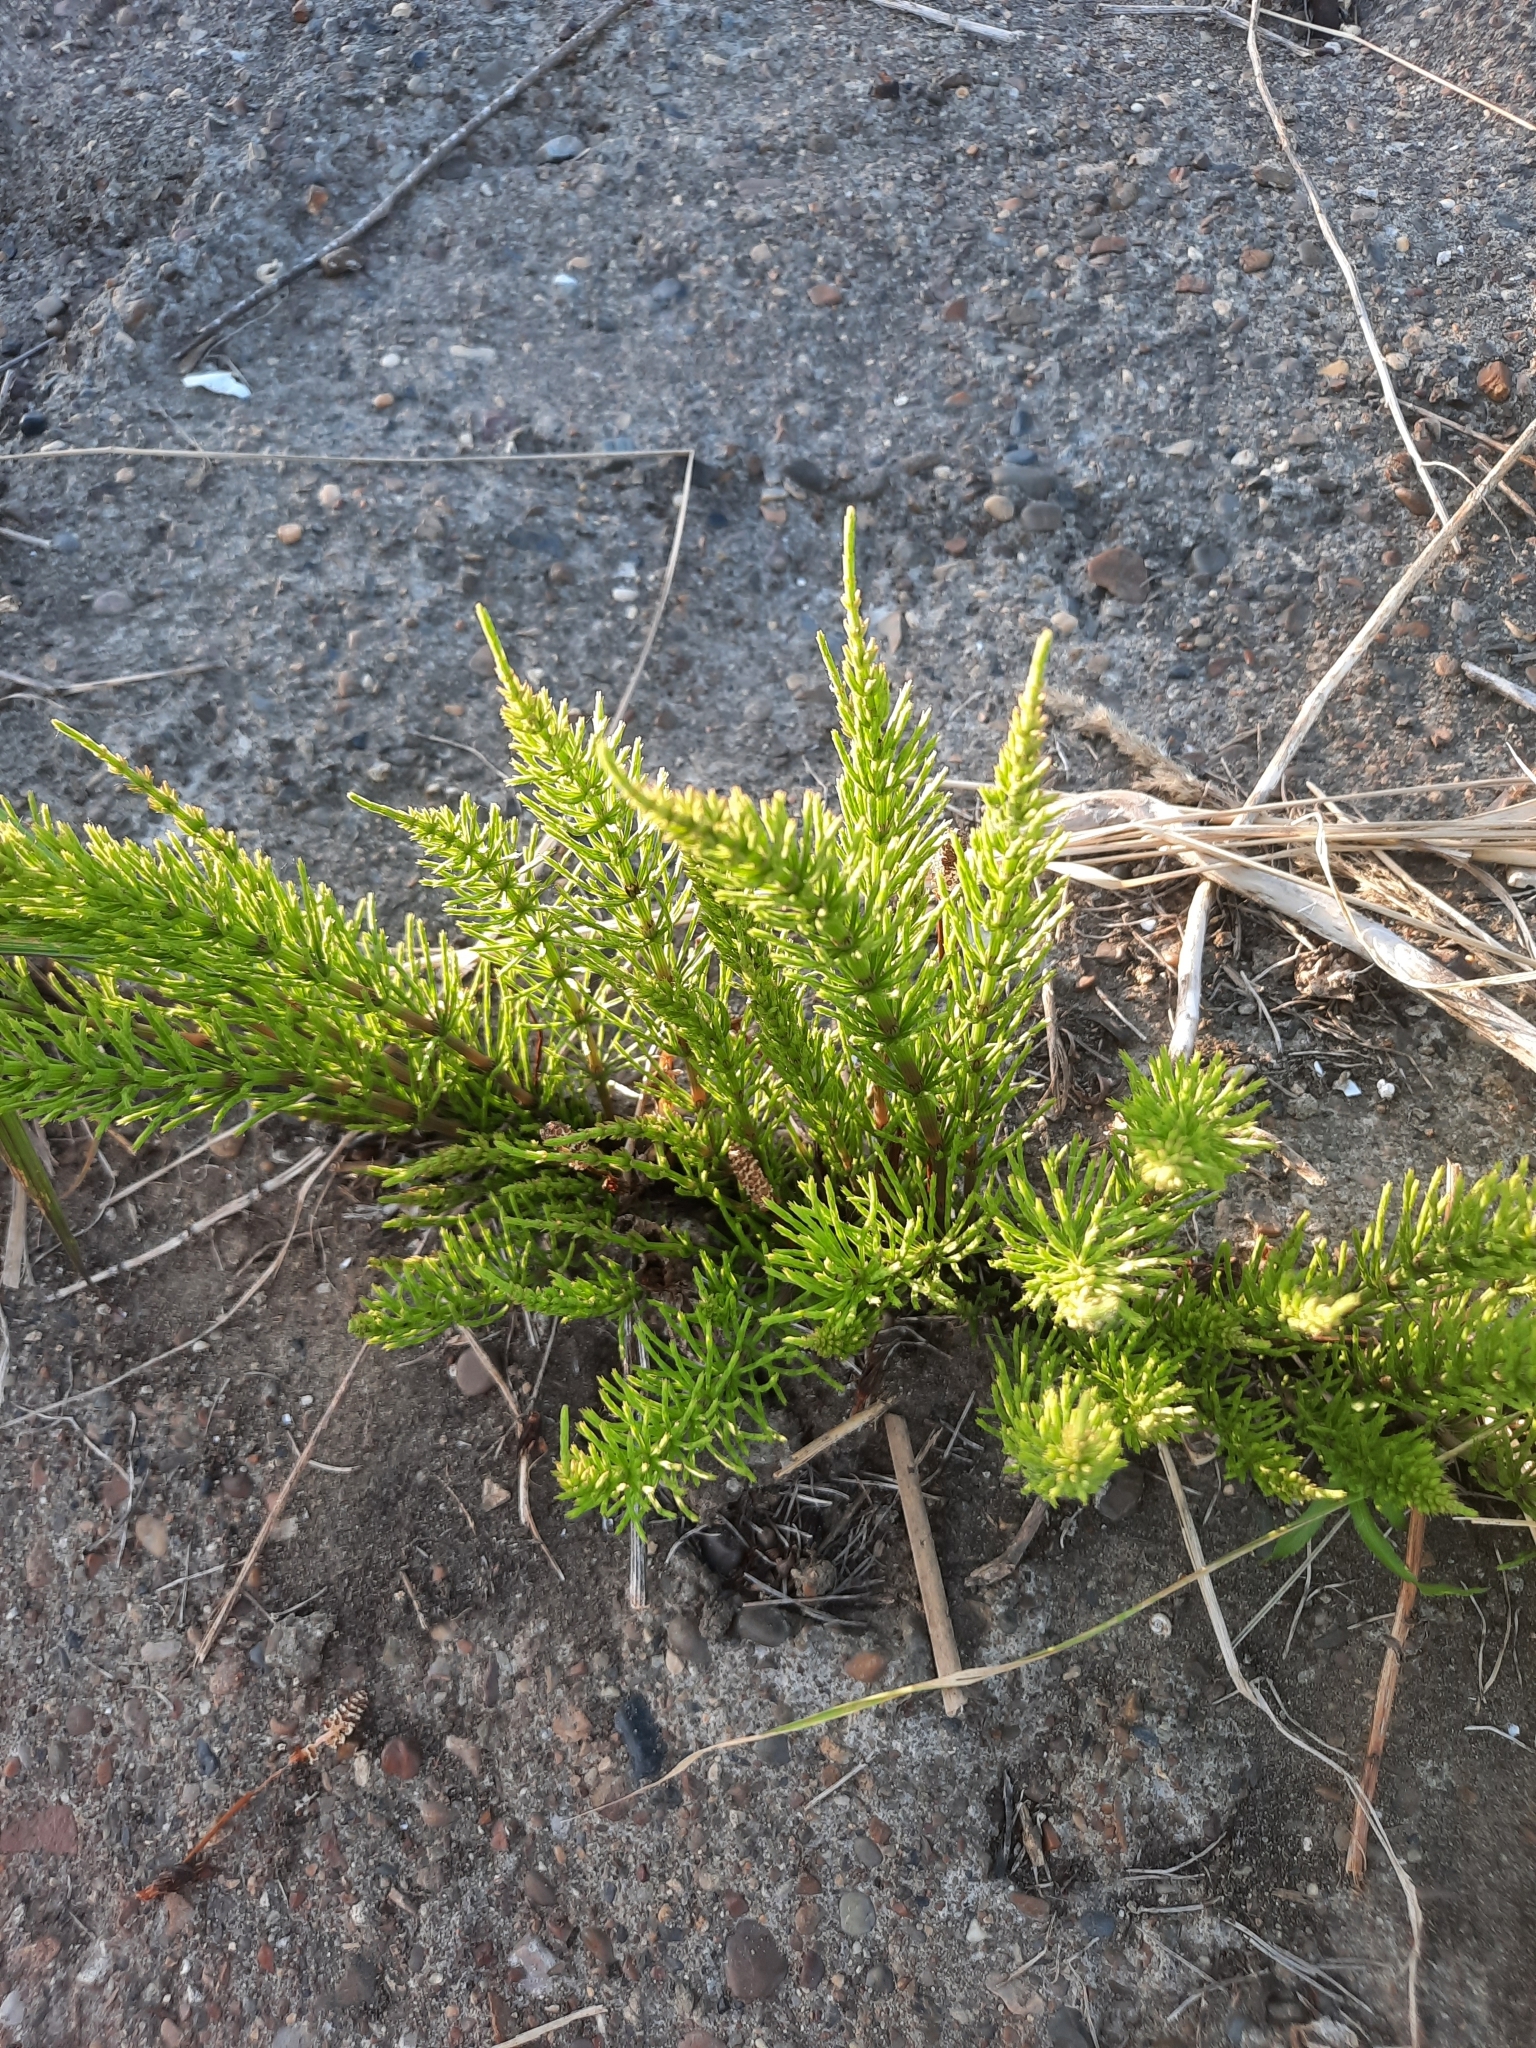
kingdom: Plantae
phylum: Tracheophyta
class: Polypodiopsida
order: Equisetales
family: Equisetaceae
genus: Equisetum
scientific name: Equisetum arvense
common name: Field horsetail
